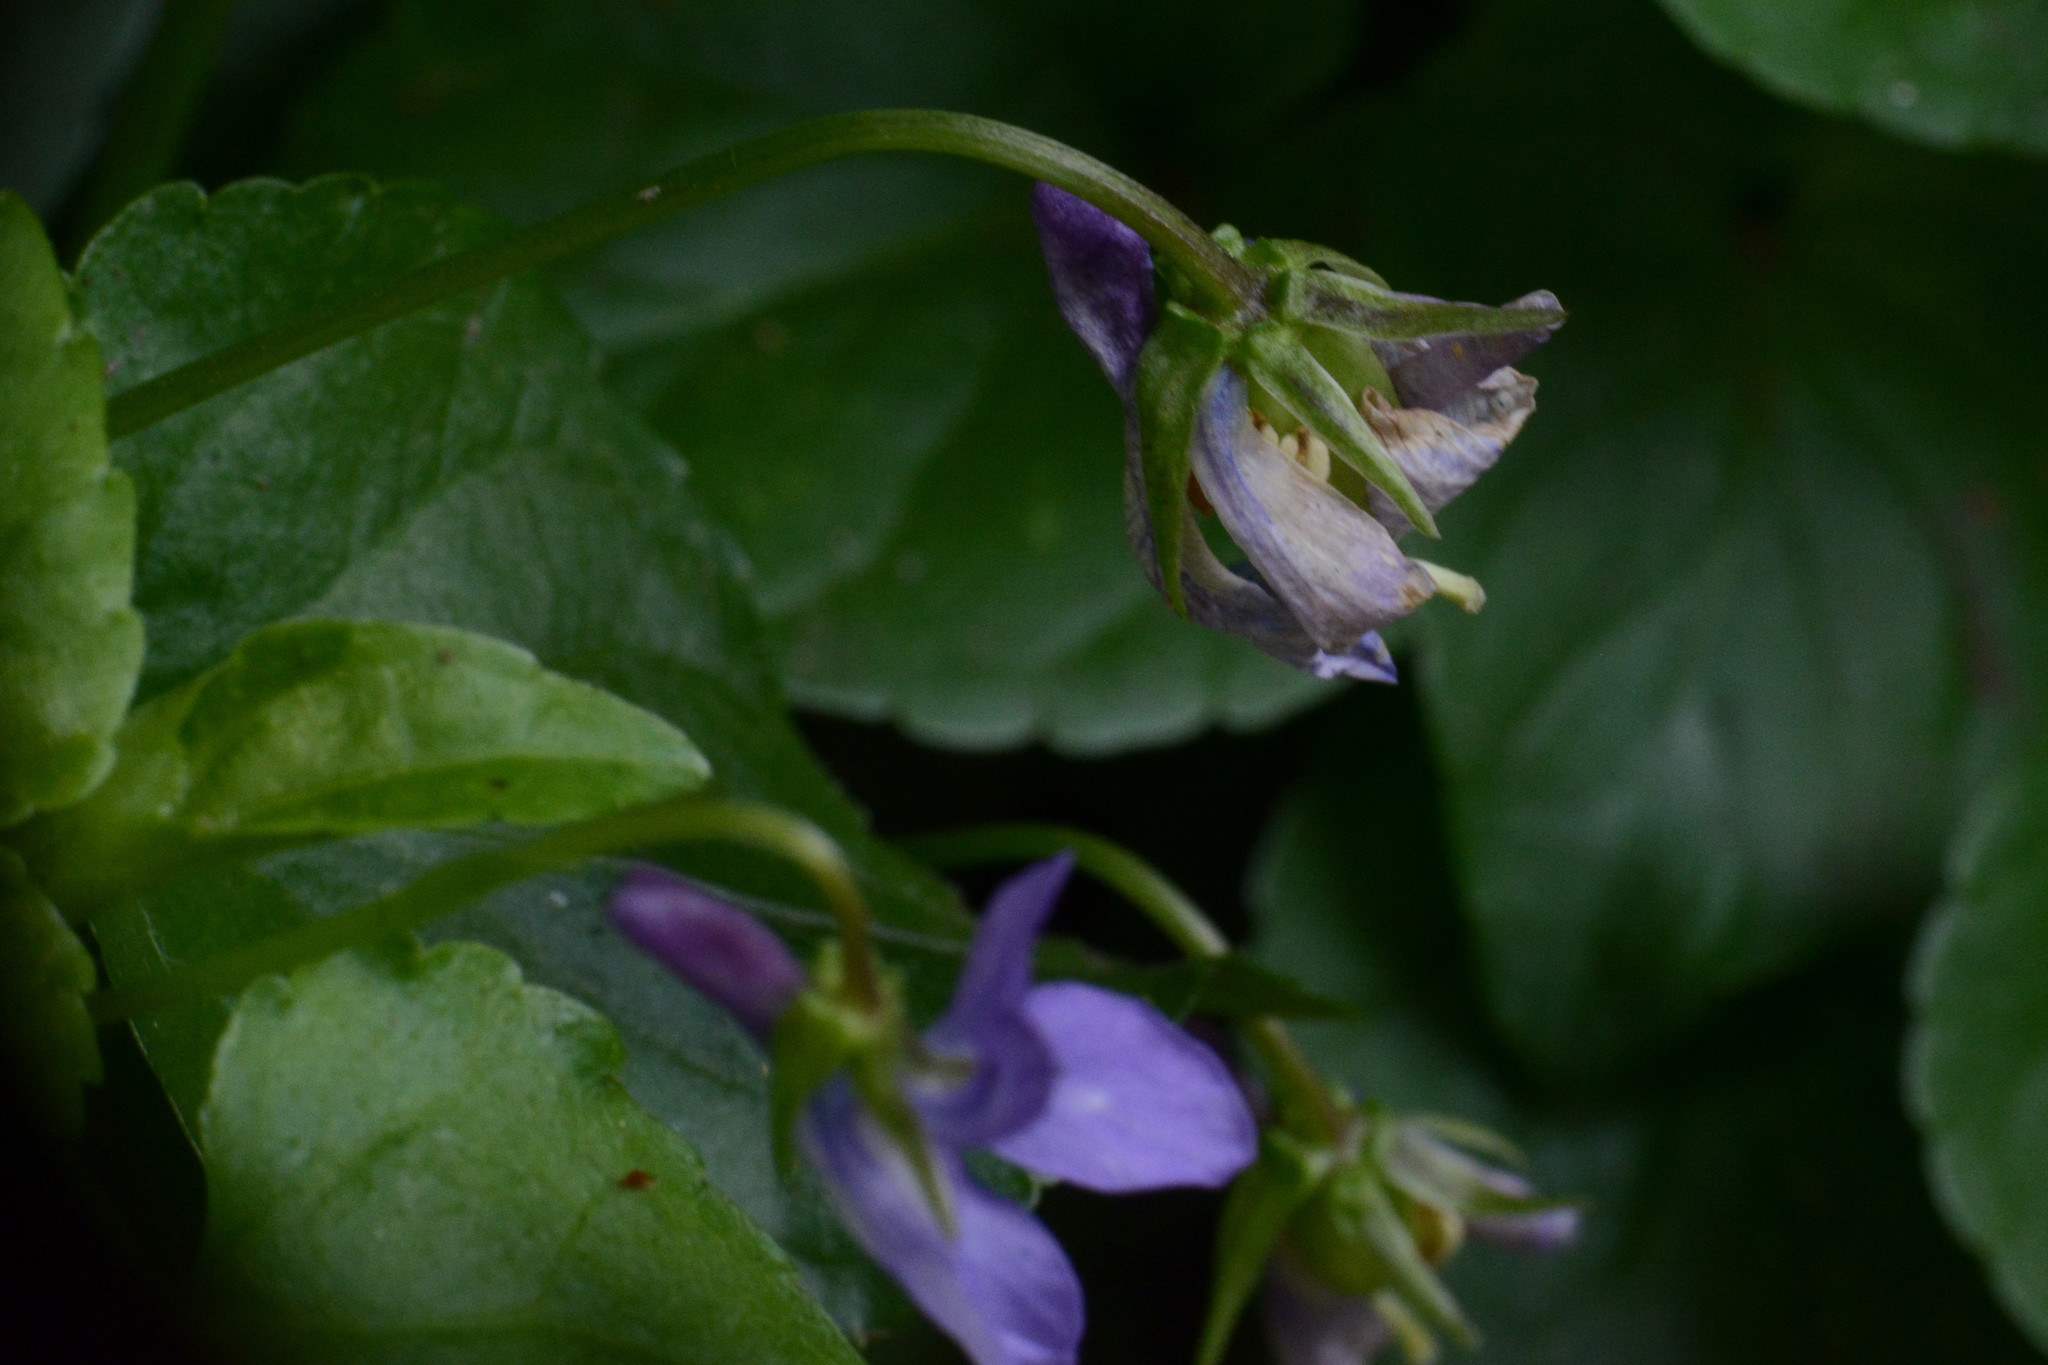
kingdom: Plantae
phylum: Tracheophyta
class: Magnoliopsida
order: Malpighiales
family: Violaceae
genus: Viola
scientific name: Viola reichenbachiana
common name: Early dog-violet
